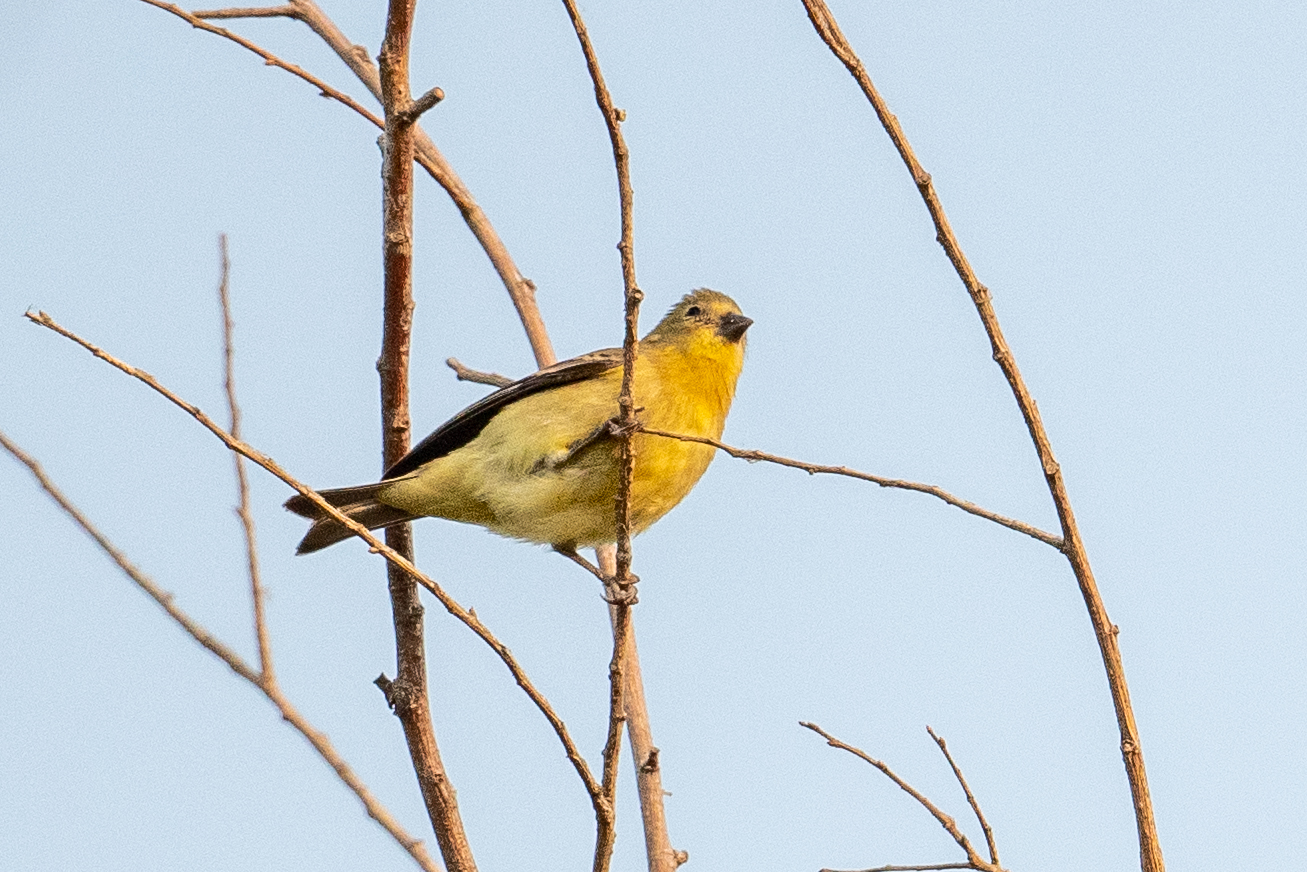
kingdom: Animalia
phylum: Chordata
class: Aves
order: Passeriformes
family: Fringillidae
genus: Spinus
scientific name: Spinus psaltria
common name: Lesser goldfinch
